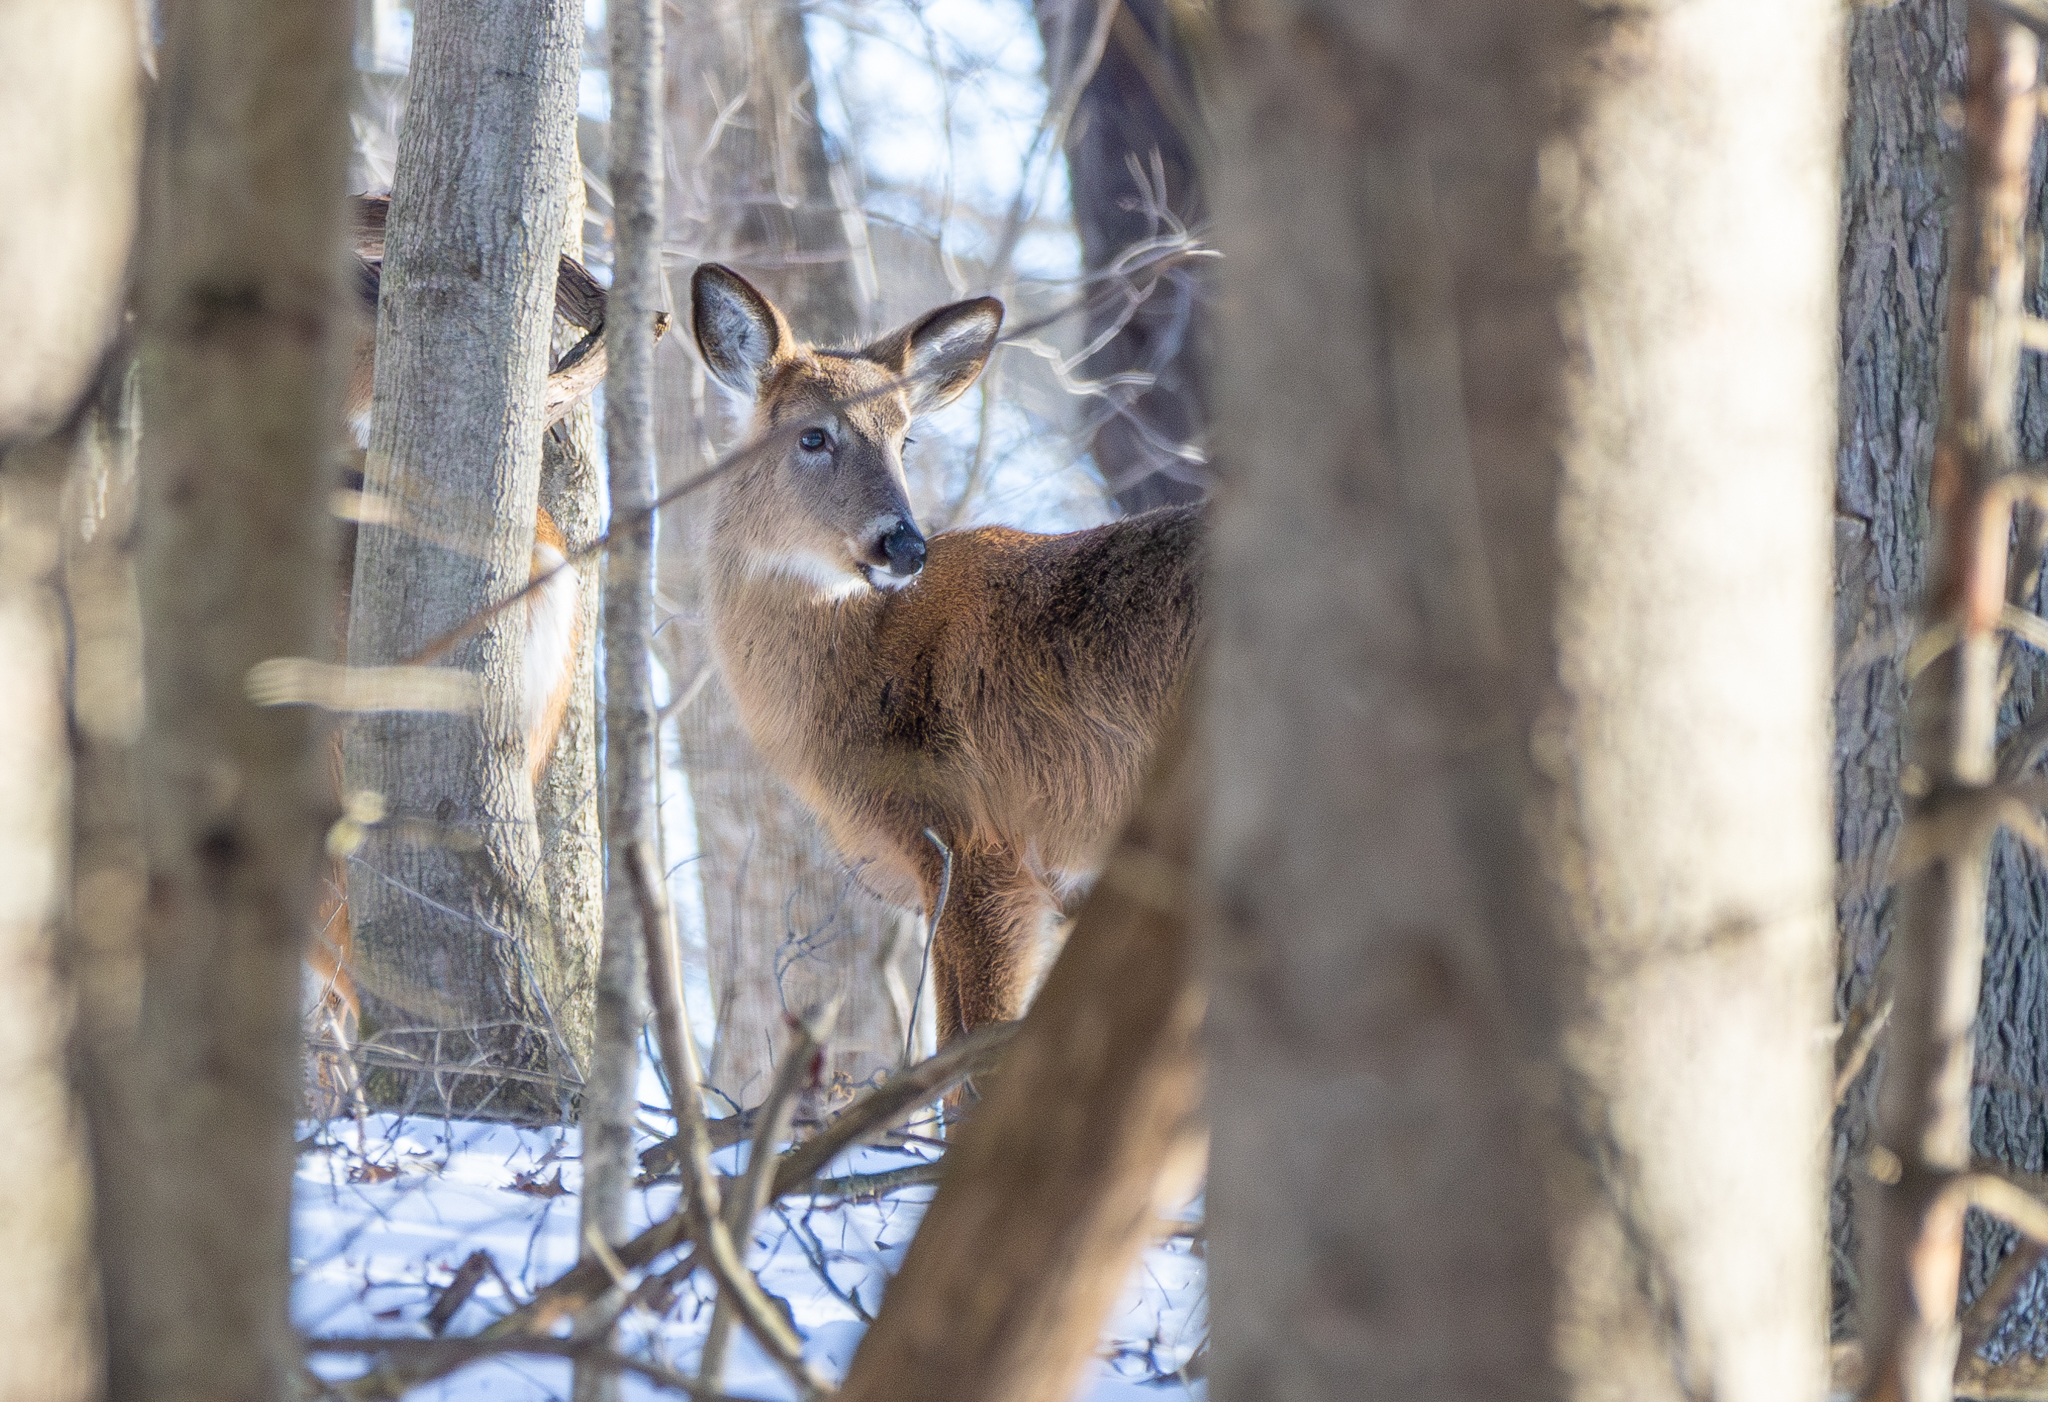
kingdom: Animalia
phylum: Chordata
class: Mammalia
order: Artiodactyla
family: Cervidae
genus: Odocoileus
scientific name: Odocoileus virginianus
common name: White-tailed deer
